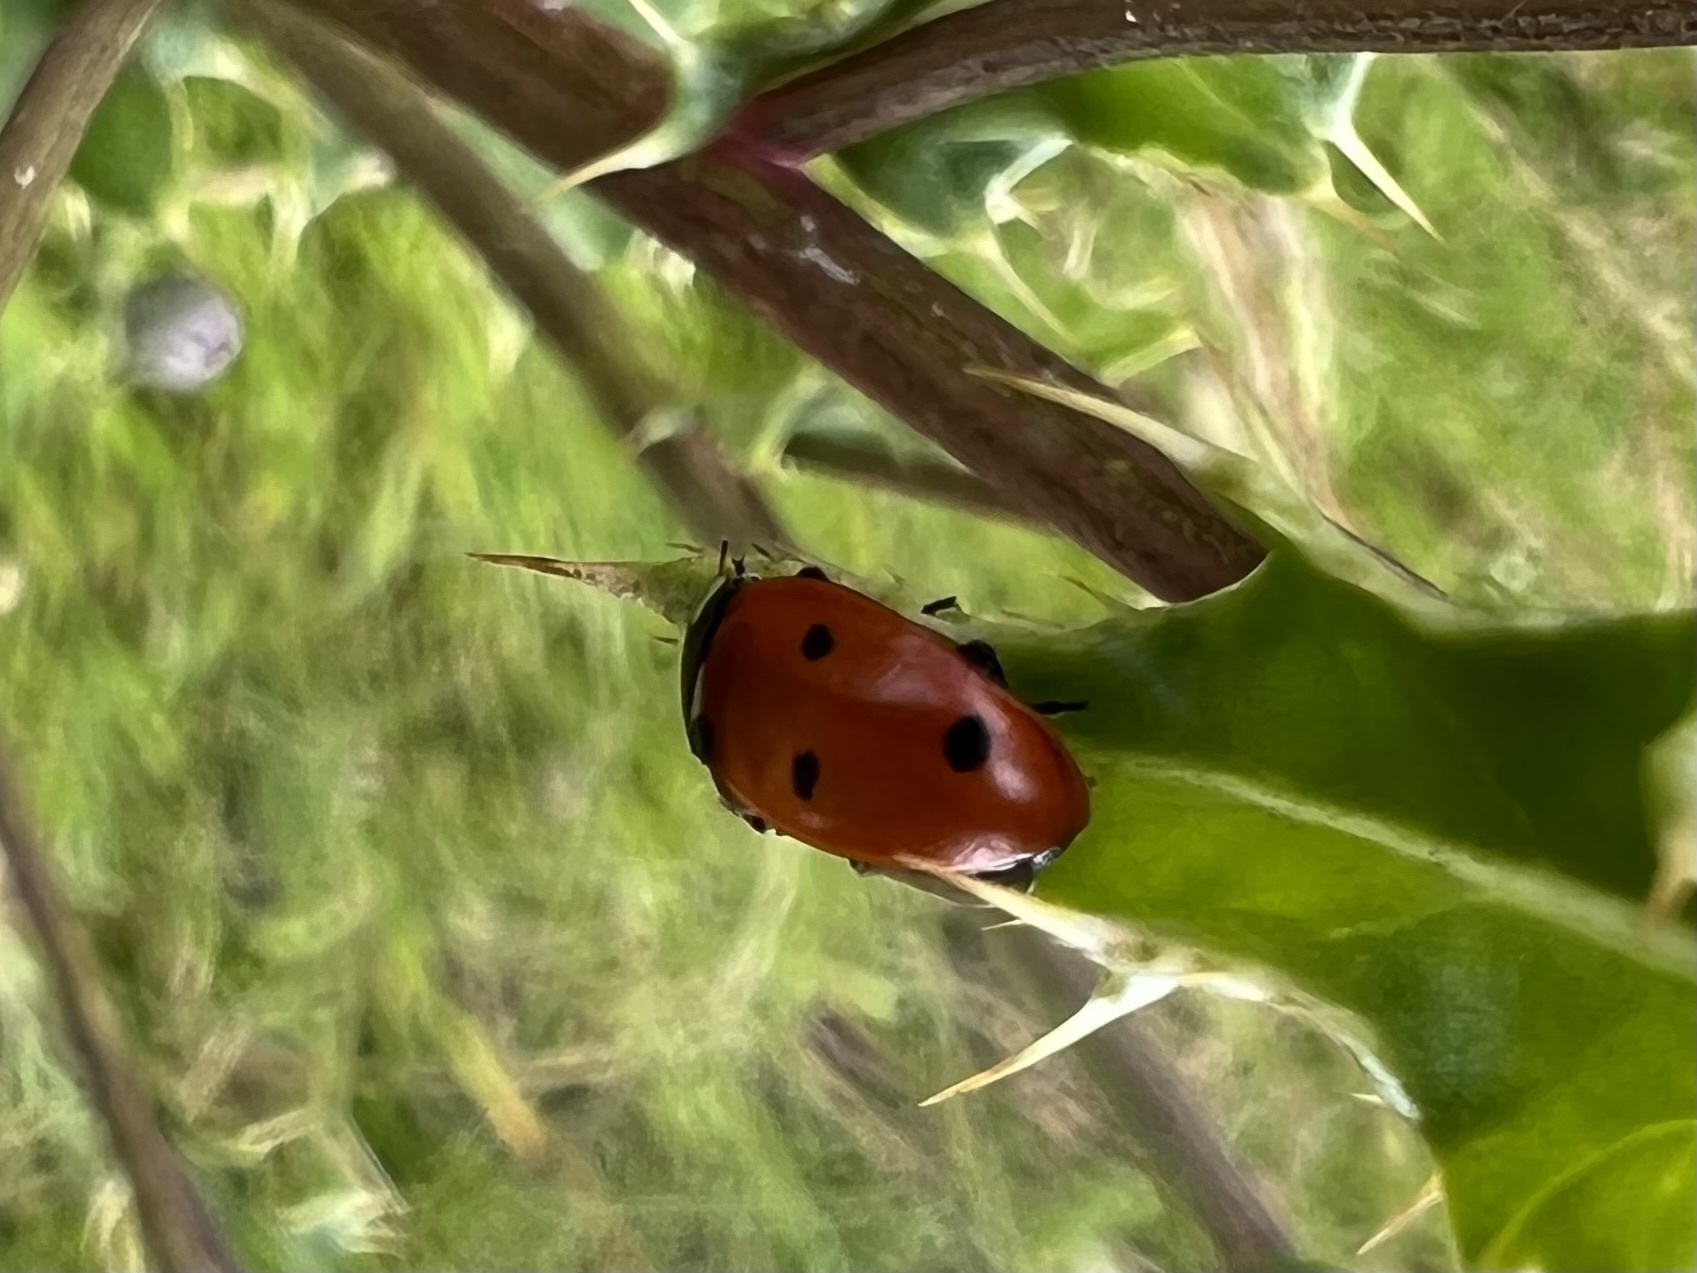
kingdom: Animalia
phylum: Arthropoda
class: Insecta
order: Coleoptera
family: Coccinellidae
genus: Coccinella
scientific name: Coccinella septempunctata
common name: Sevenspotted lady beetle
